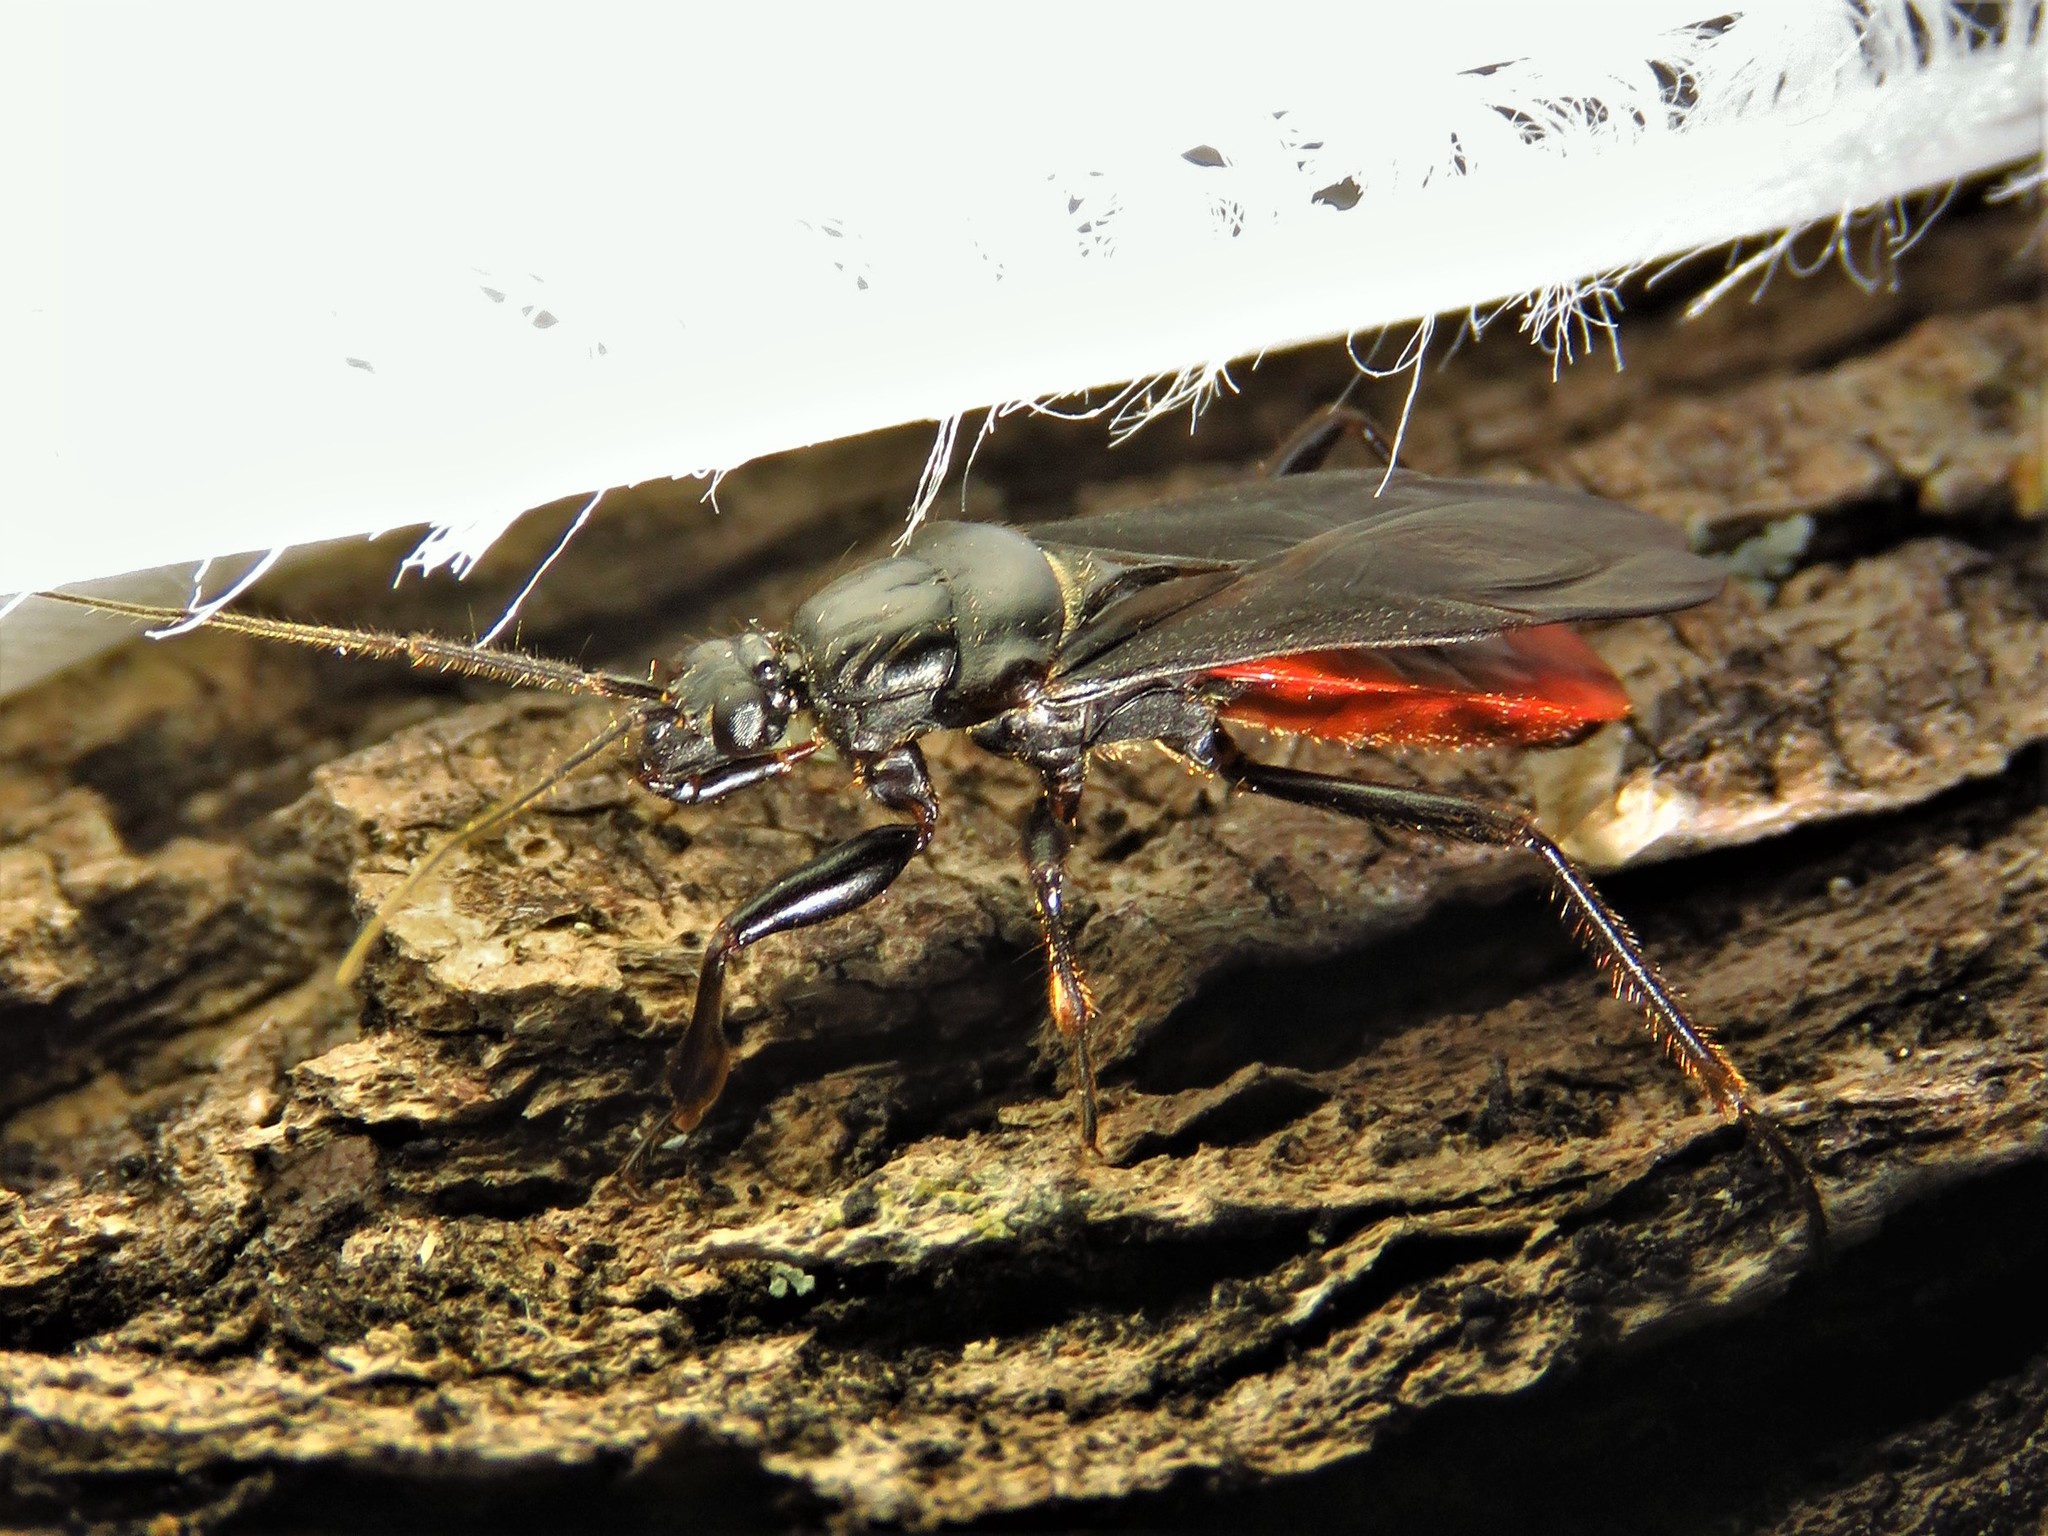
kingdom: Animalia
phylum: Arthropoda
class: Insecta
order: Hemiptera
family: Reduviidae
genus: Melanolestes
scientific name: Melanolestes picipes
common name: Assassin bug
